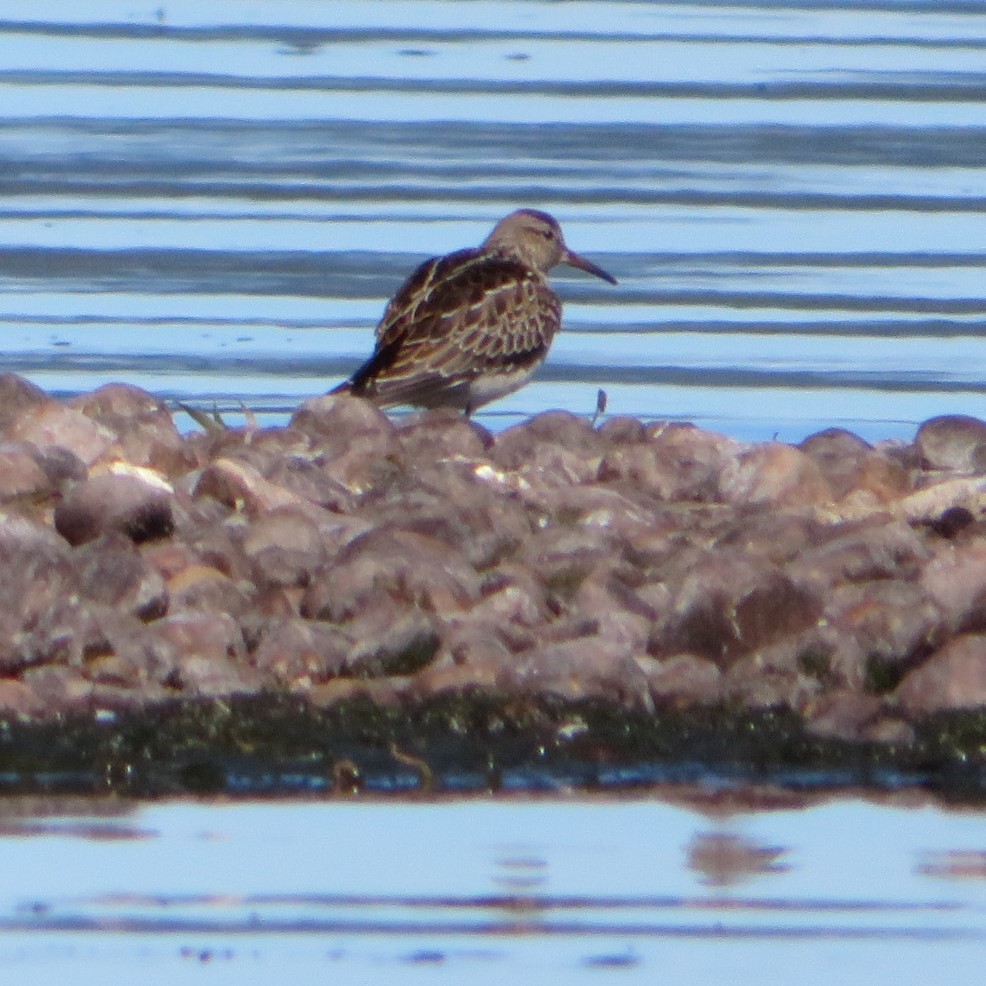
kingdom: Animalia
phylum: Chordata
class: Aves
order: Charadriiformes
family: Scolopacidae
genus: Calidris
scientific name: Calidris melanotos
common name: Pectoral sandpiper
